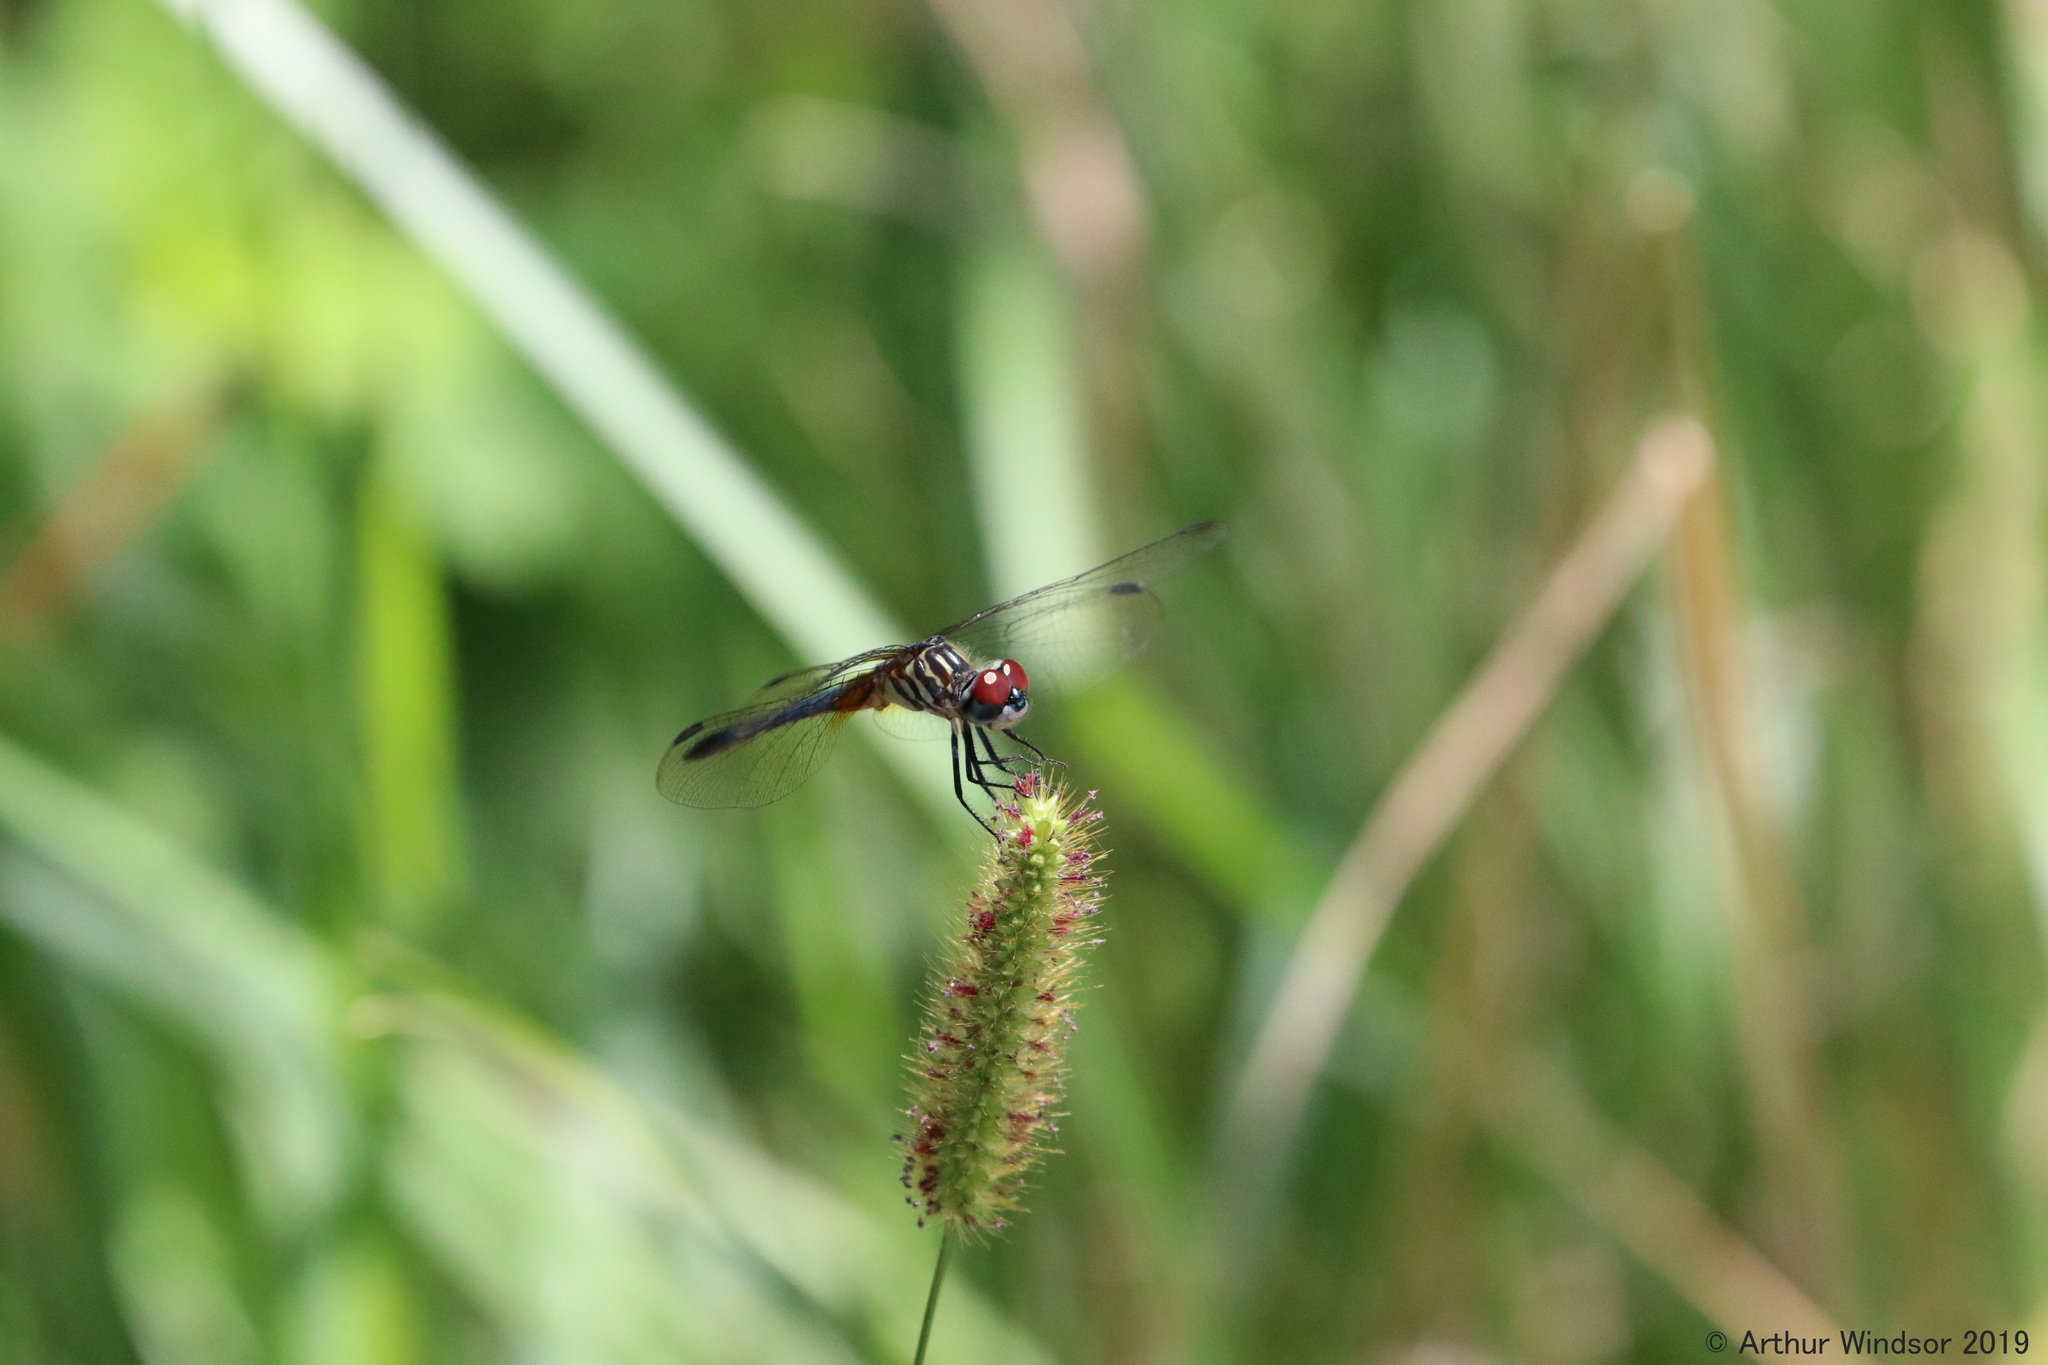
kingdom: Animalia
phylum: Arthropoda
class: Insecta
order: Odonata
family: Libellulidae
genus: Pachydiplax
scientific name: Pachydiplax longipennis
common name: Blue dasher
